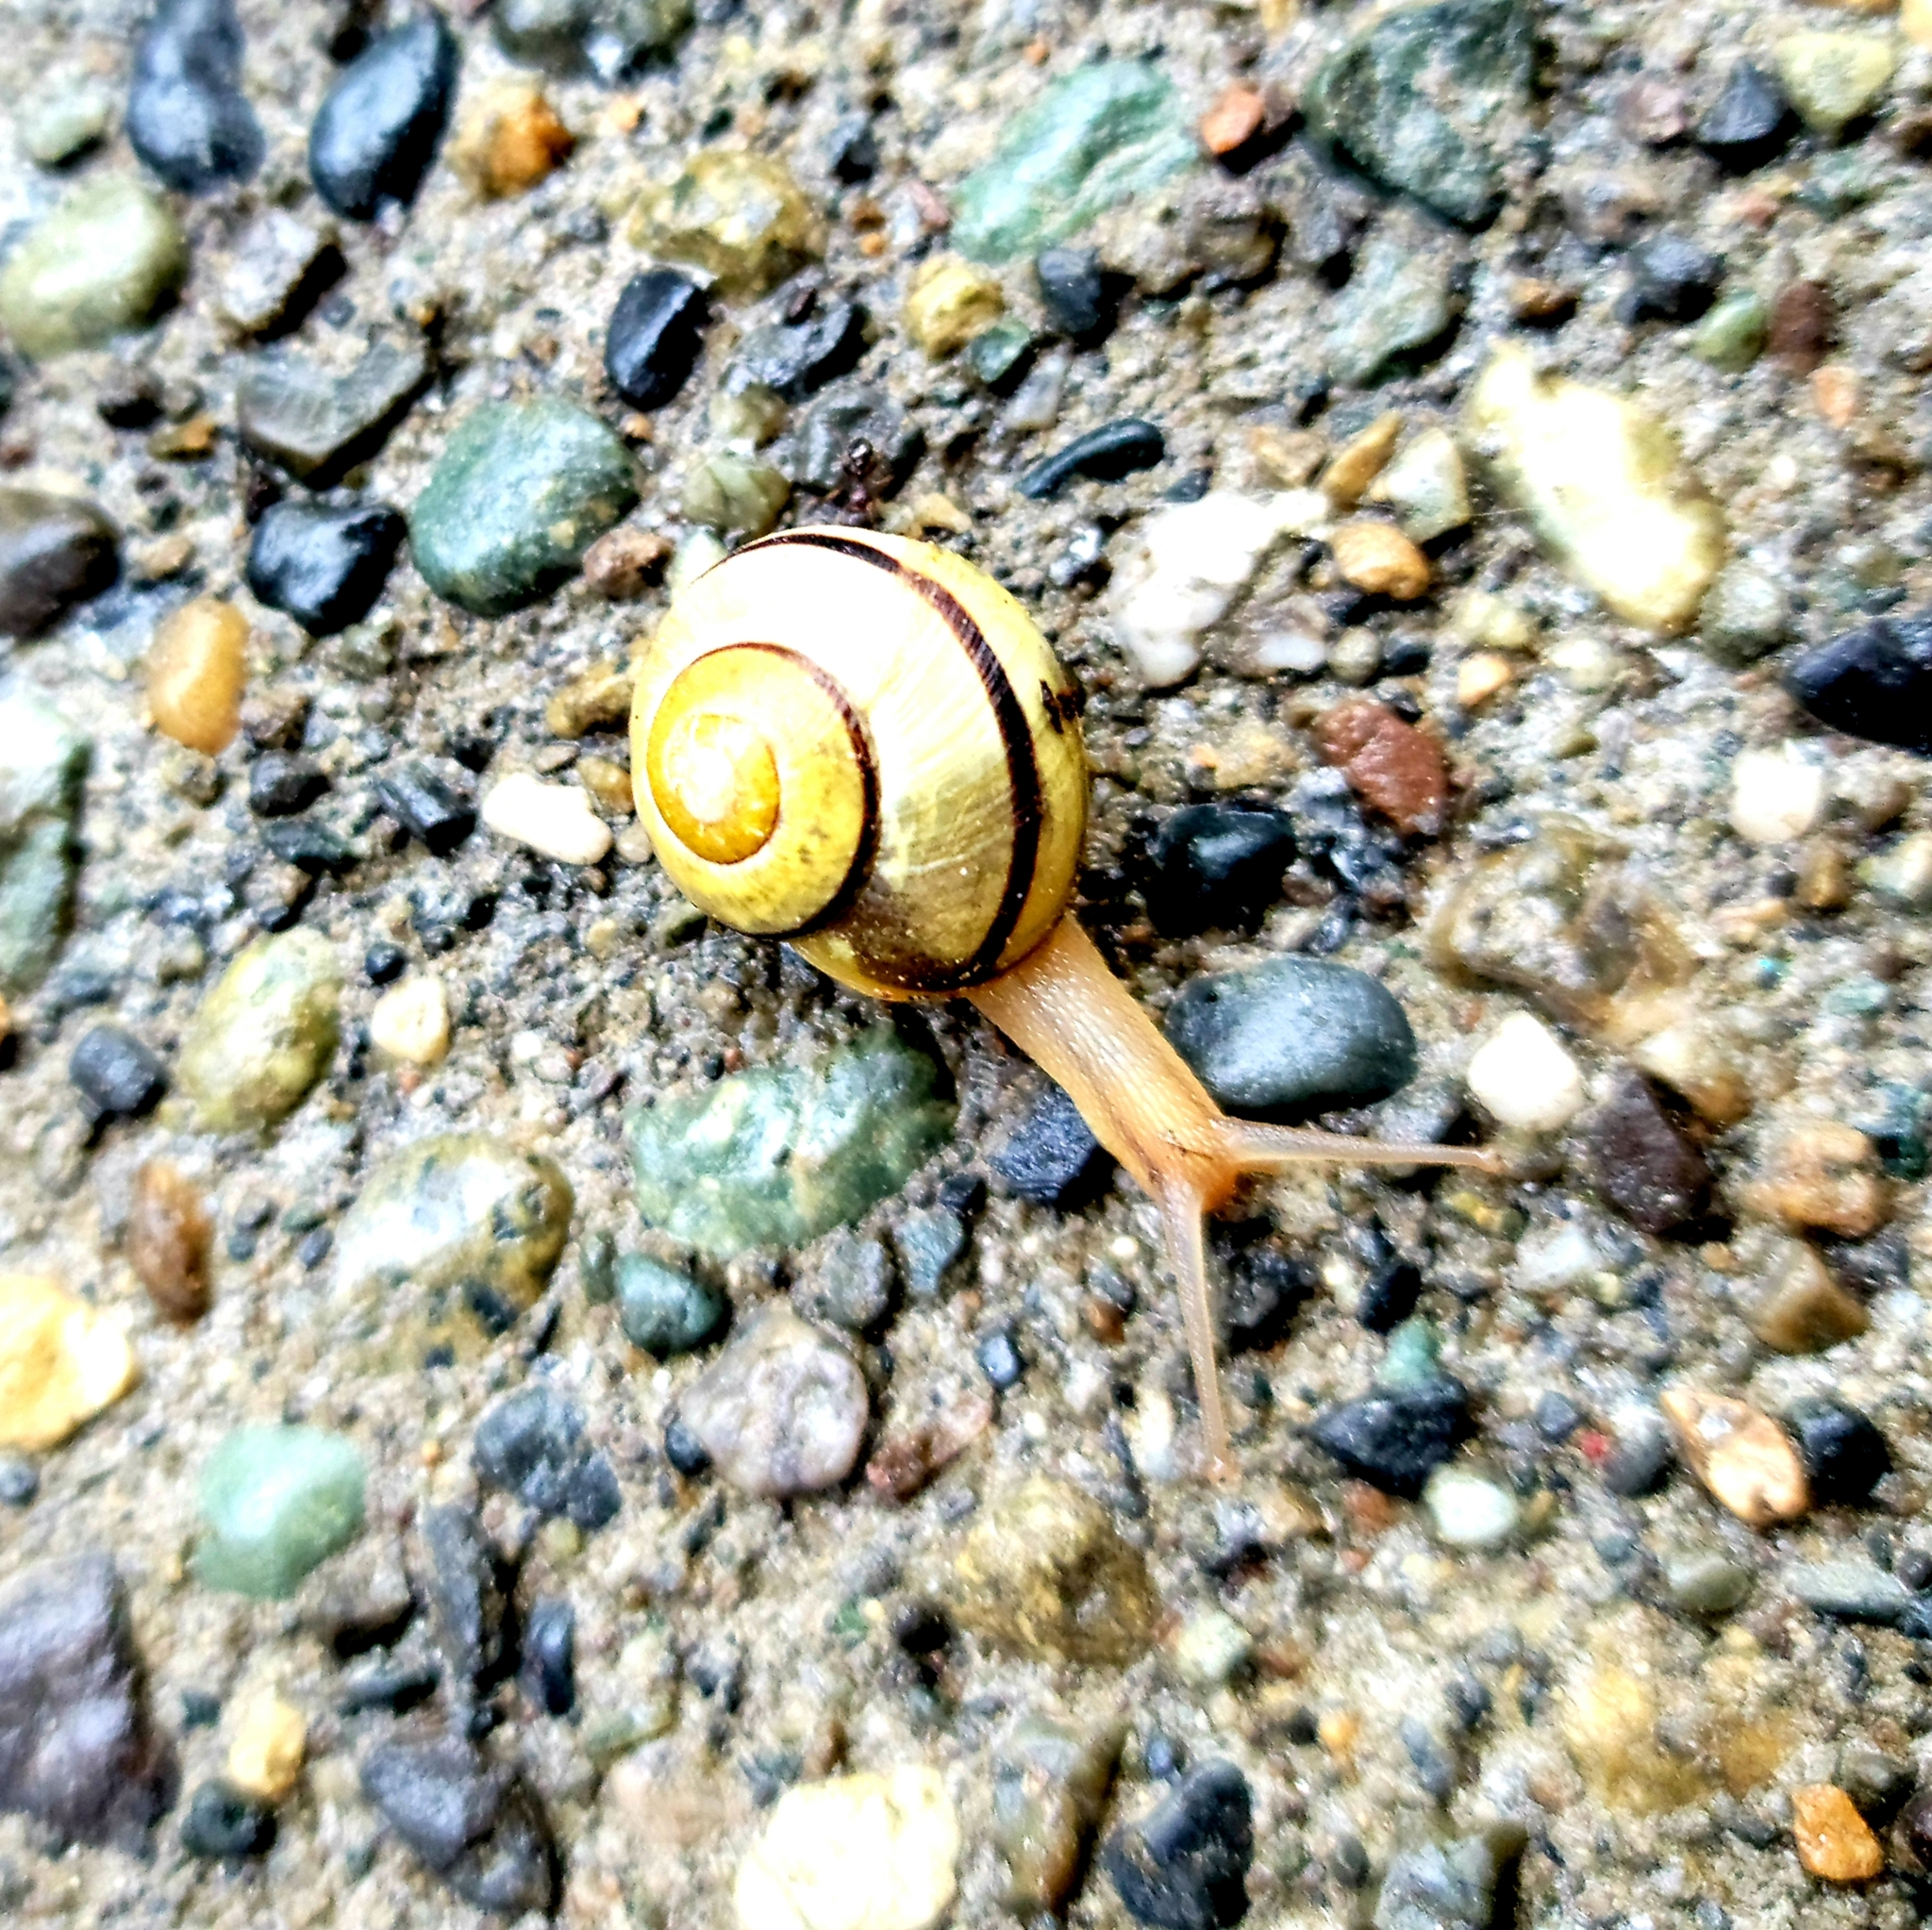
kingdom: Animalia
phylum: Mollusca
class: Gastropoda
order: Stylommatophora
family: Helicidae
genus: Cepaea
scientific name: Cepaea nemoralis
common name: Grovesnail
